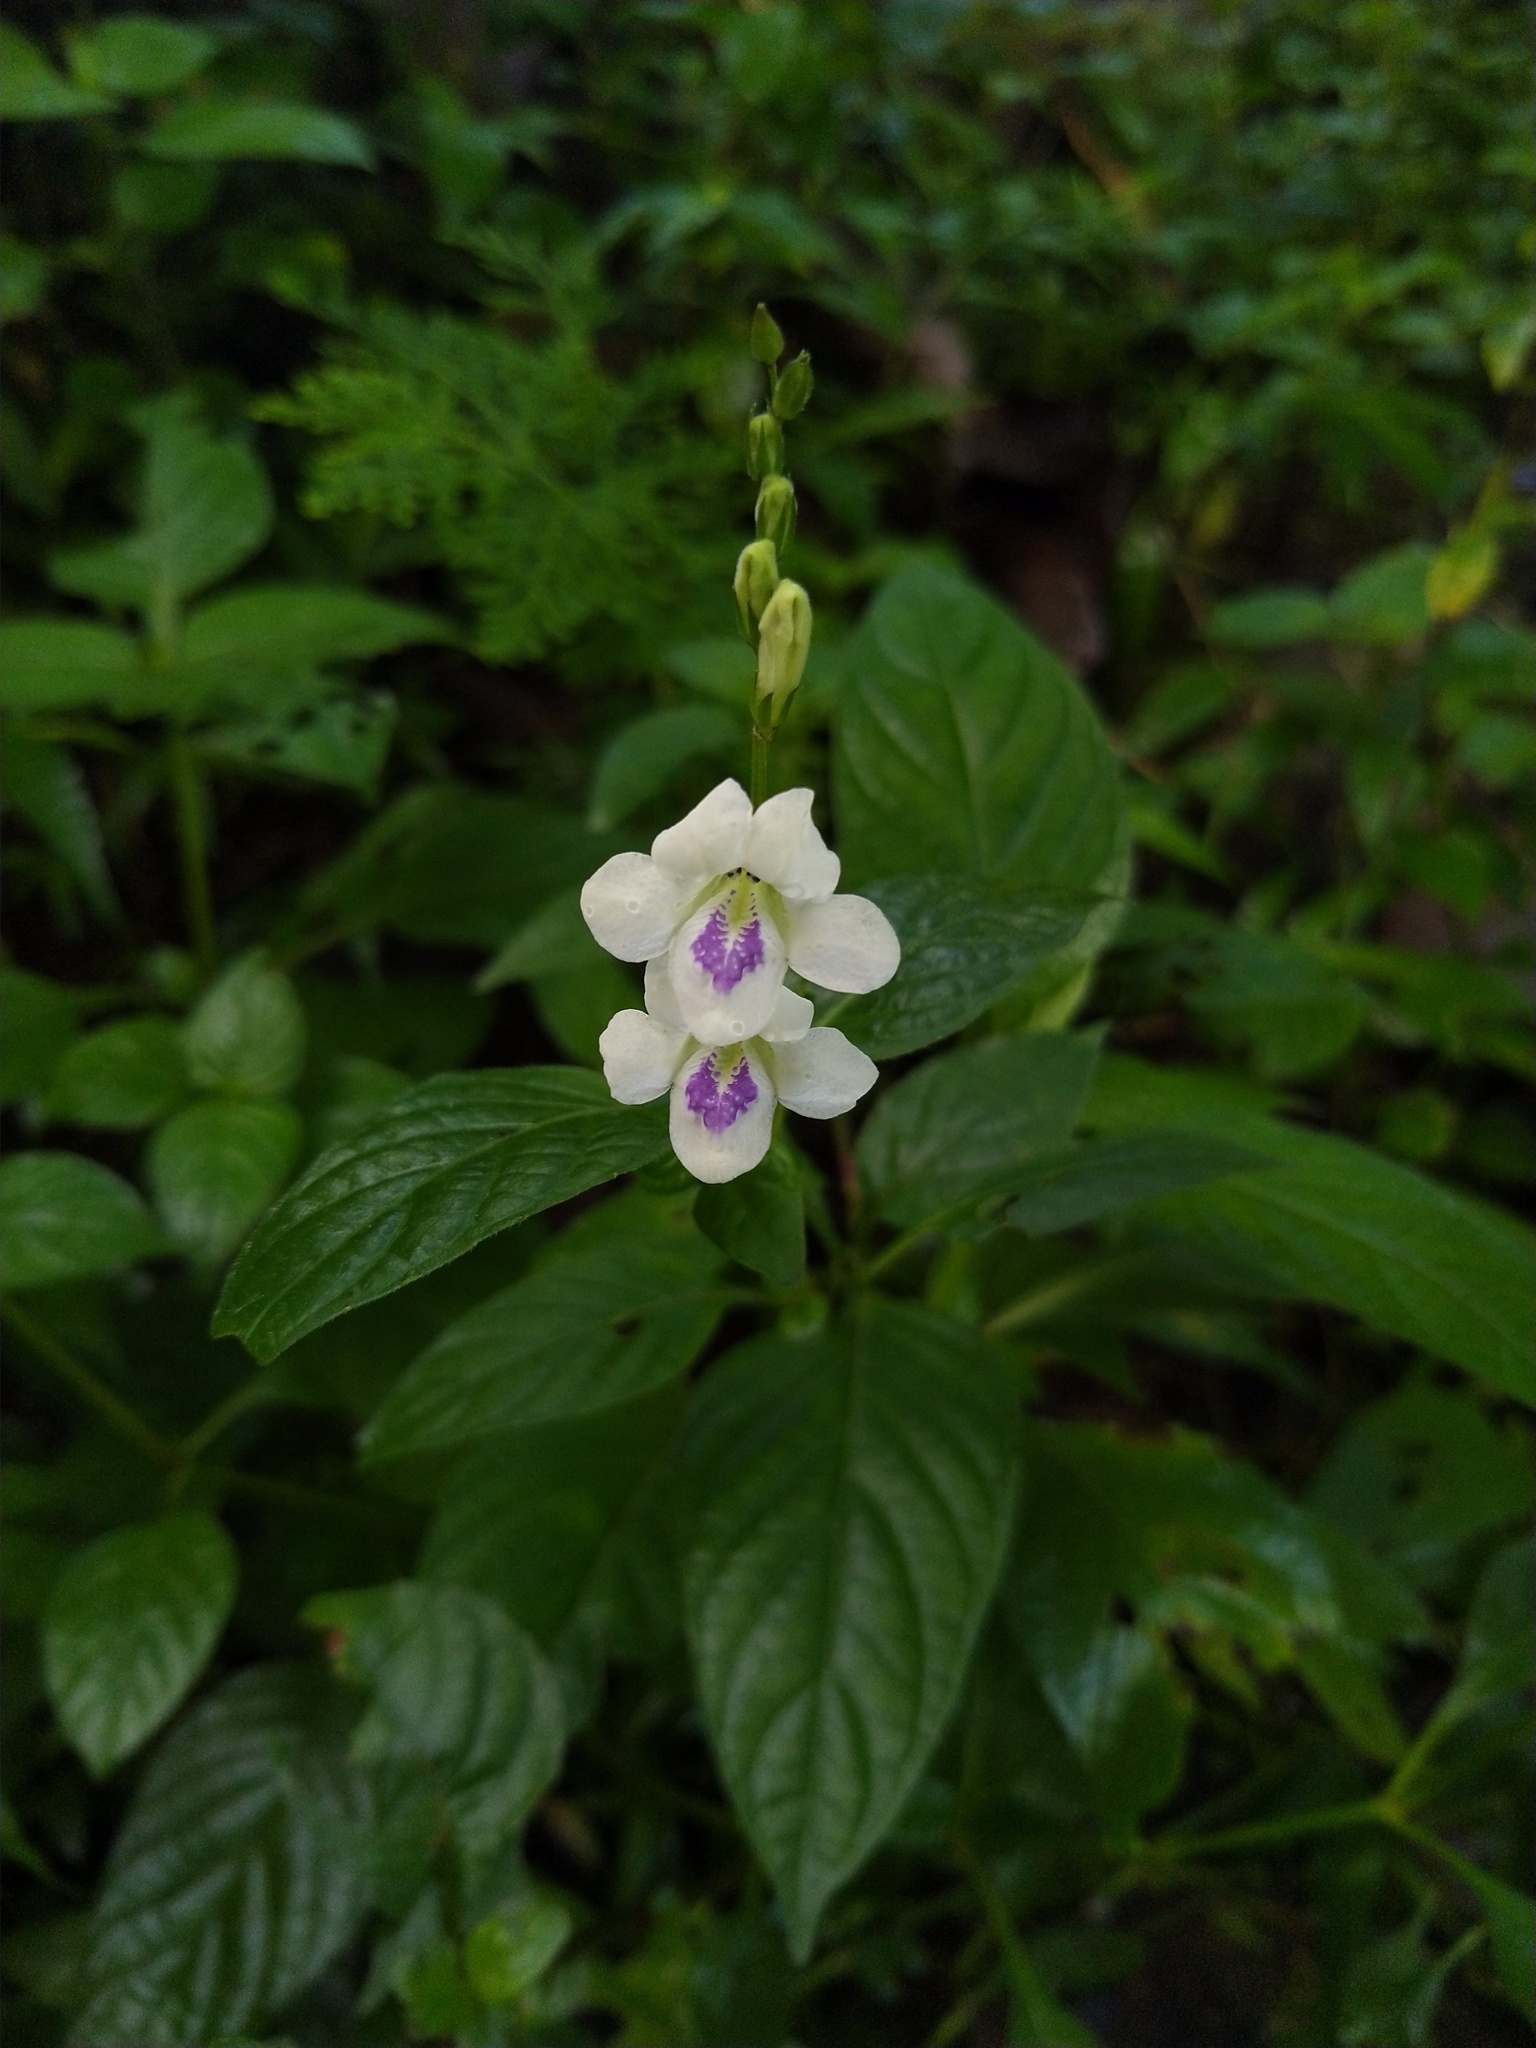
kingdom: Plantae
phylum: Tracheophyta
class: Magnoliopsida
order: Lamiales
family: Acanthaceae
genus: Asystasia
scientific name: Asystasia intrusa
